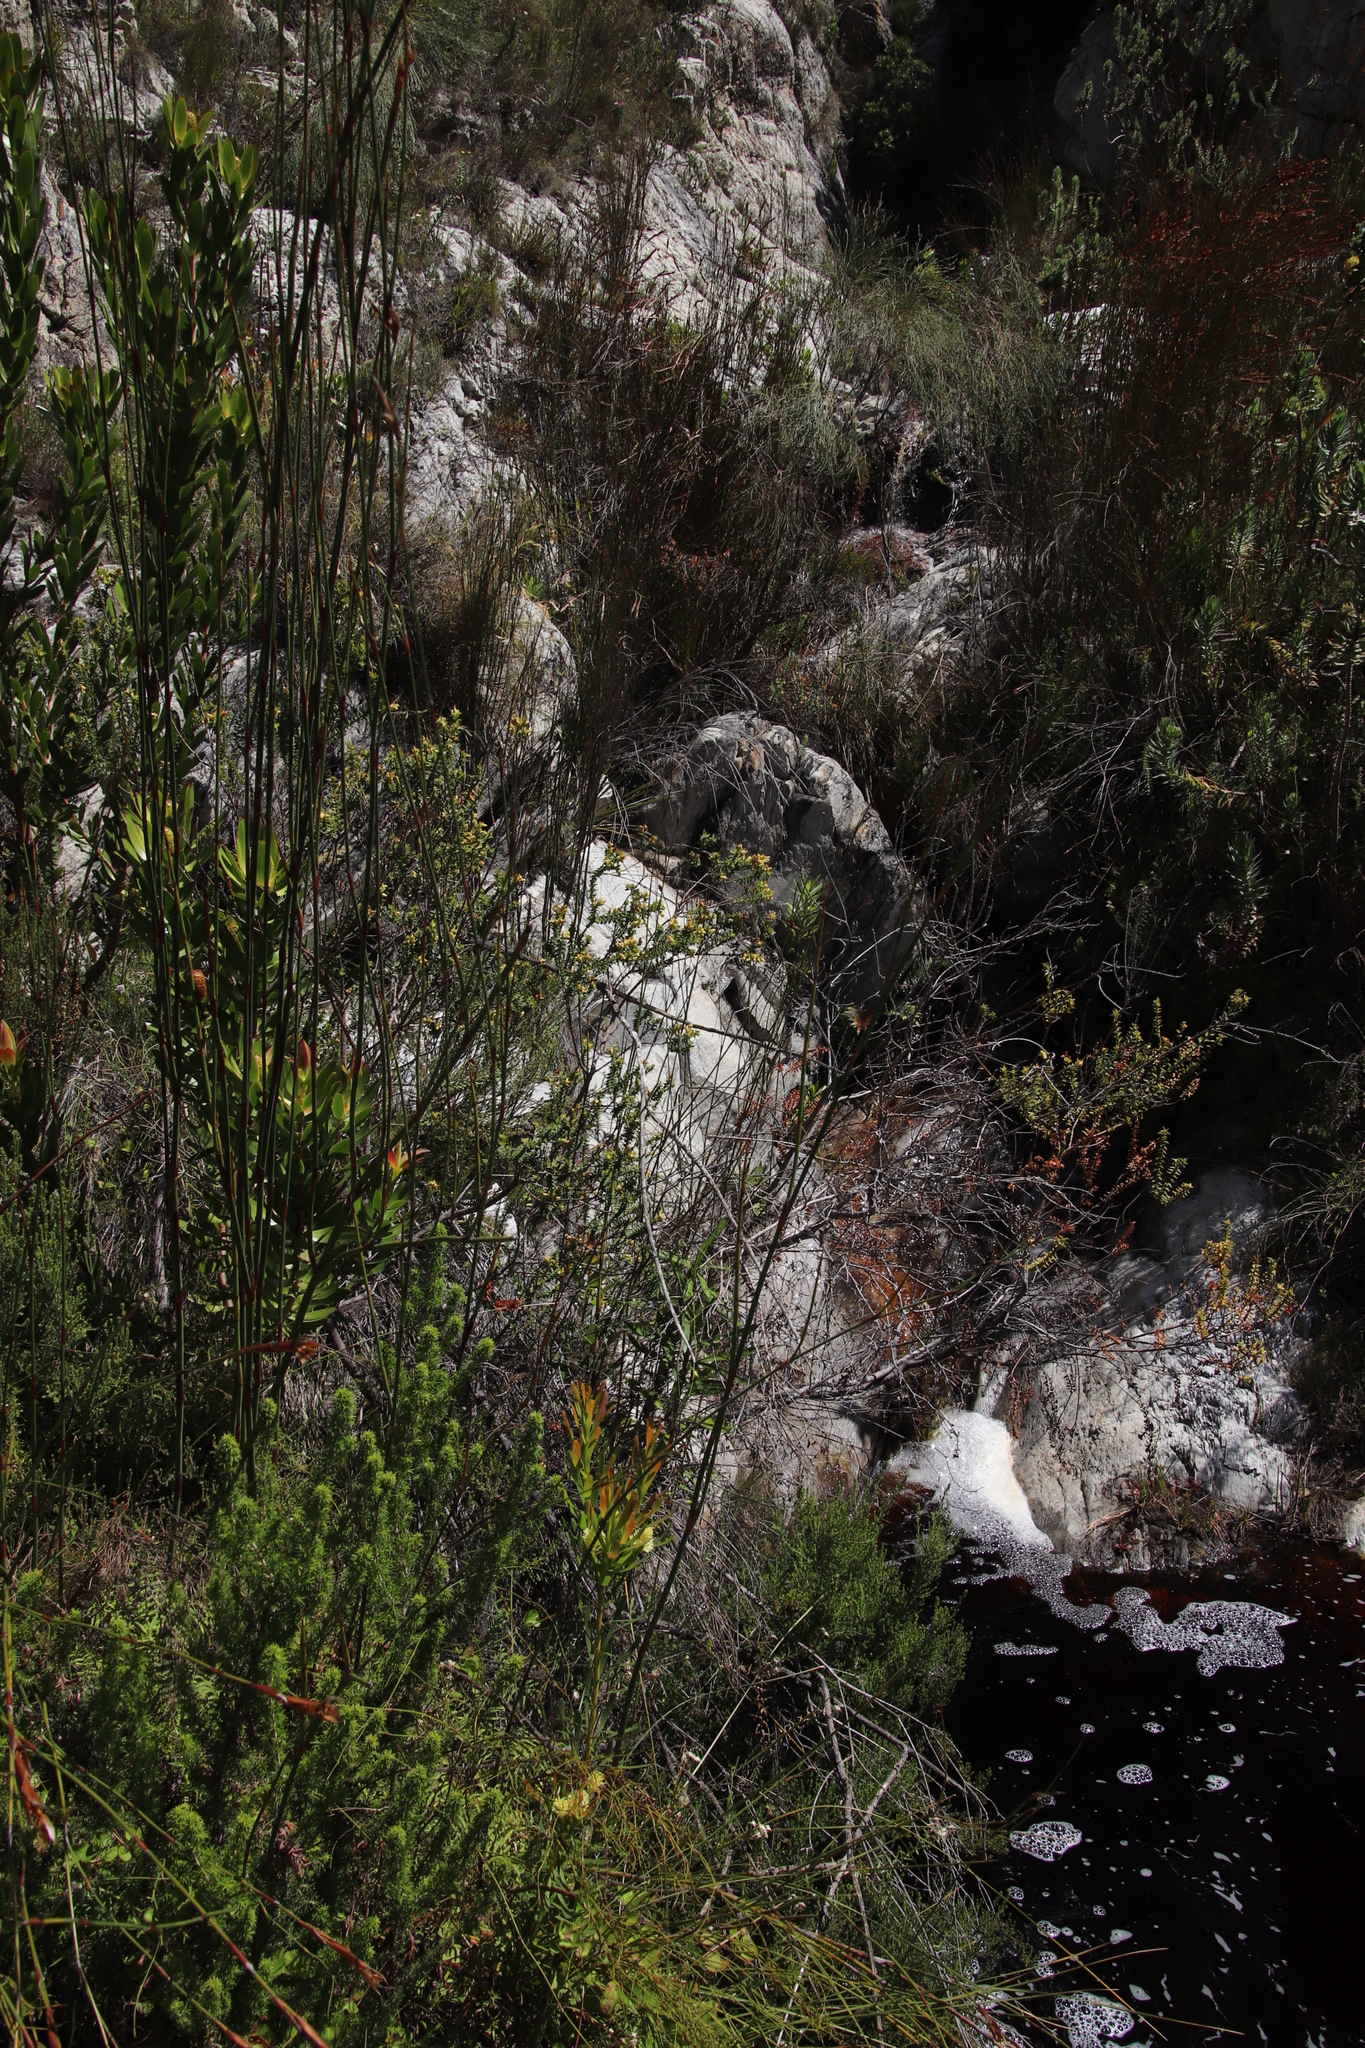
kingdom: Plantae
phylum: Tracheophyta
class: Magnoliopsida
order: Myrtales
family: Penaeaceae
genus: Penaea
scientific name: Penaea cneorum
